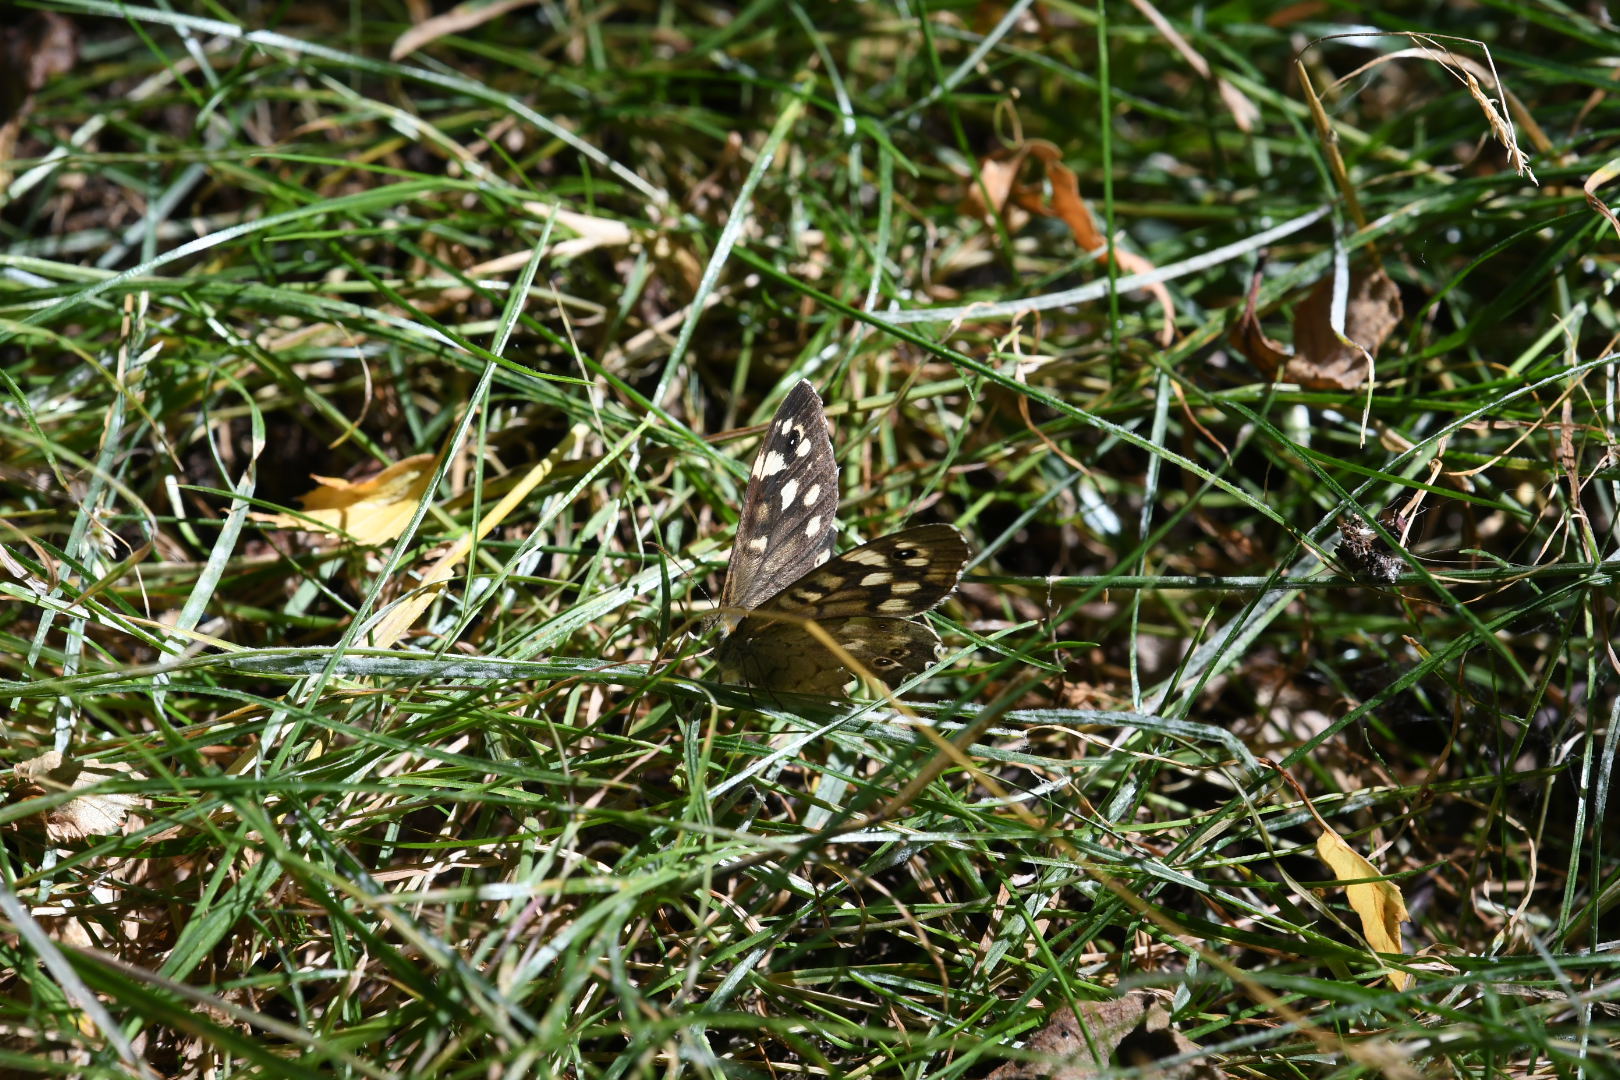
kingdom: Animalia
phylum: Arthropoda
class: Insecta
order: Lepidoptera
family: Nymphalidae
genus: Pararge
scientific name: Pararge aegeria
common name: Speckled wood
